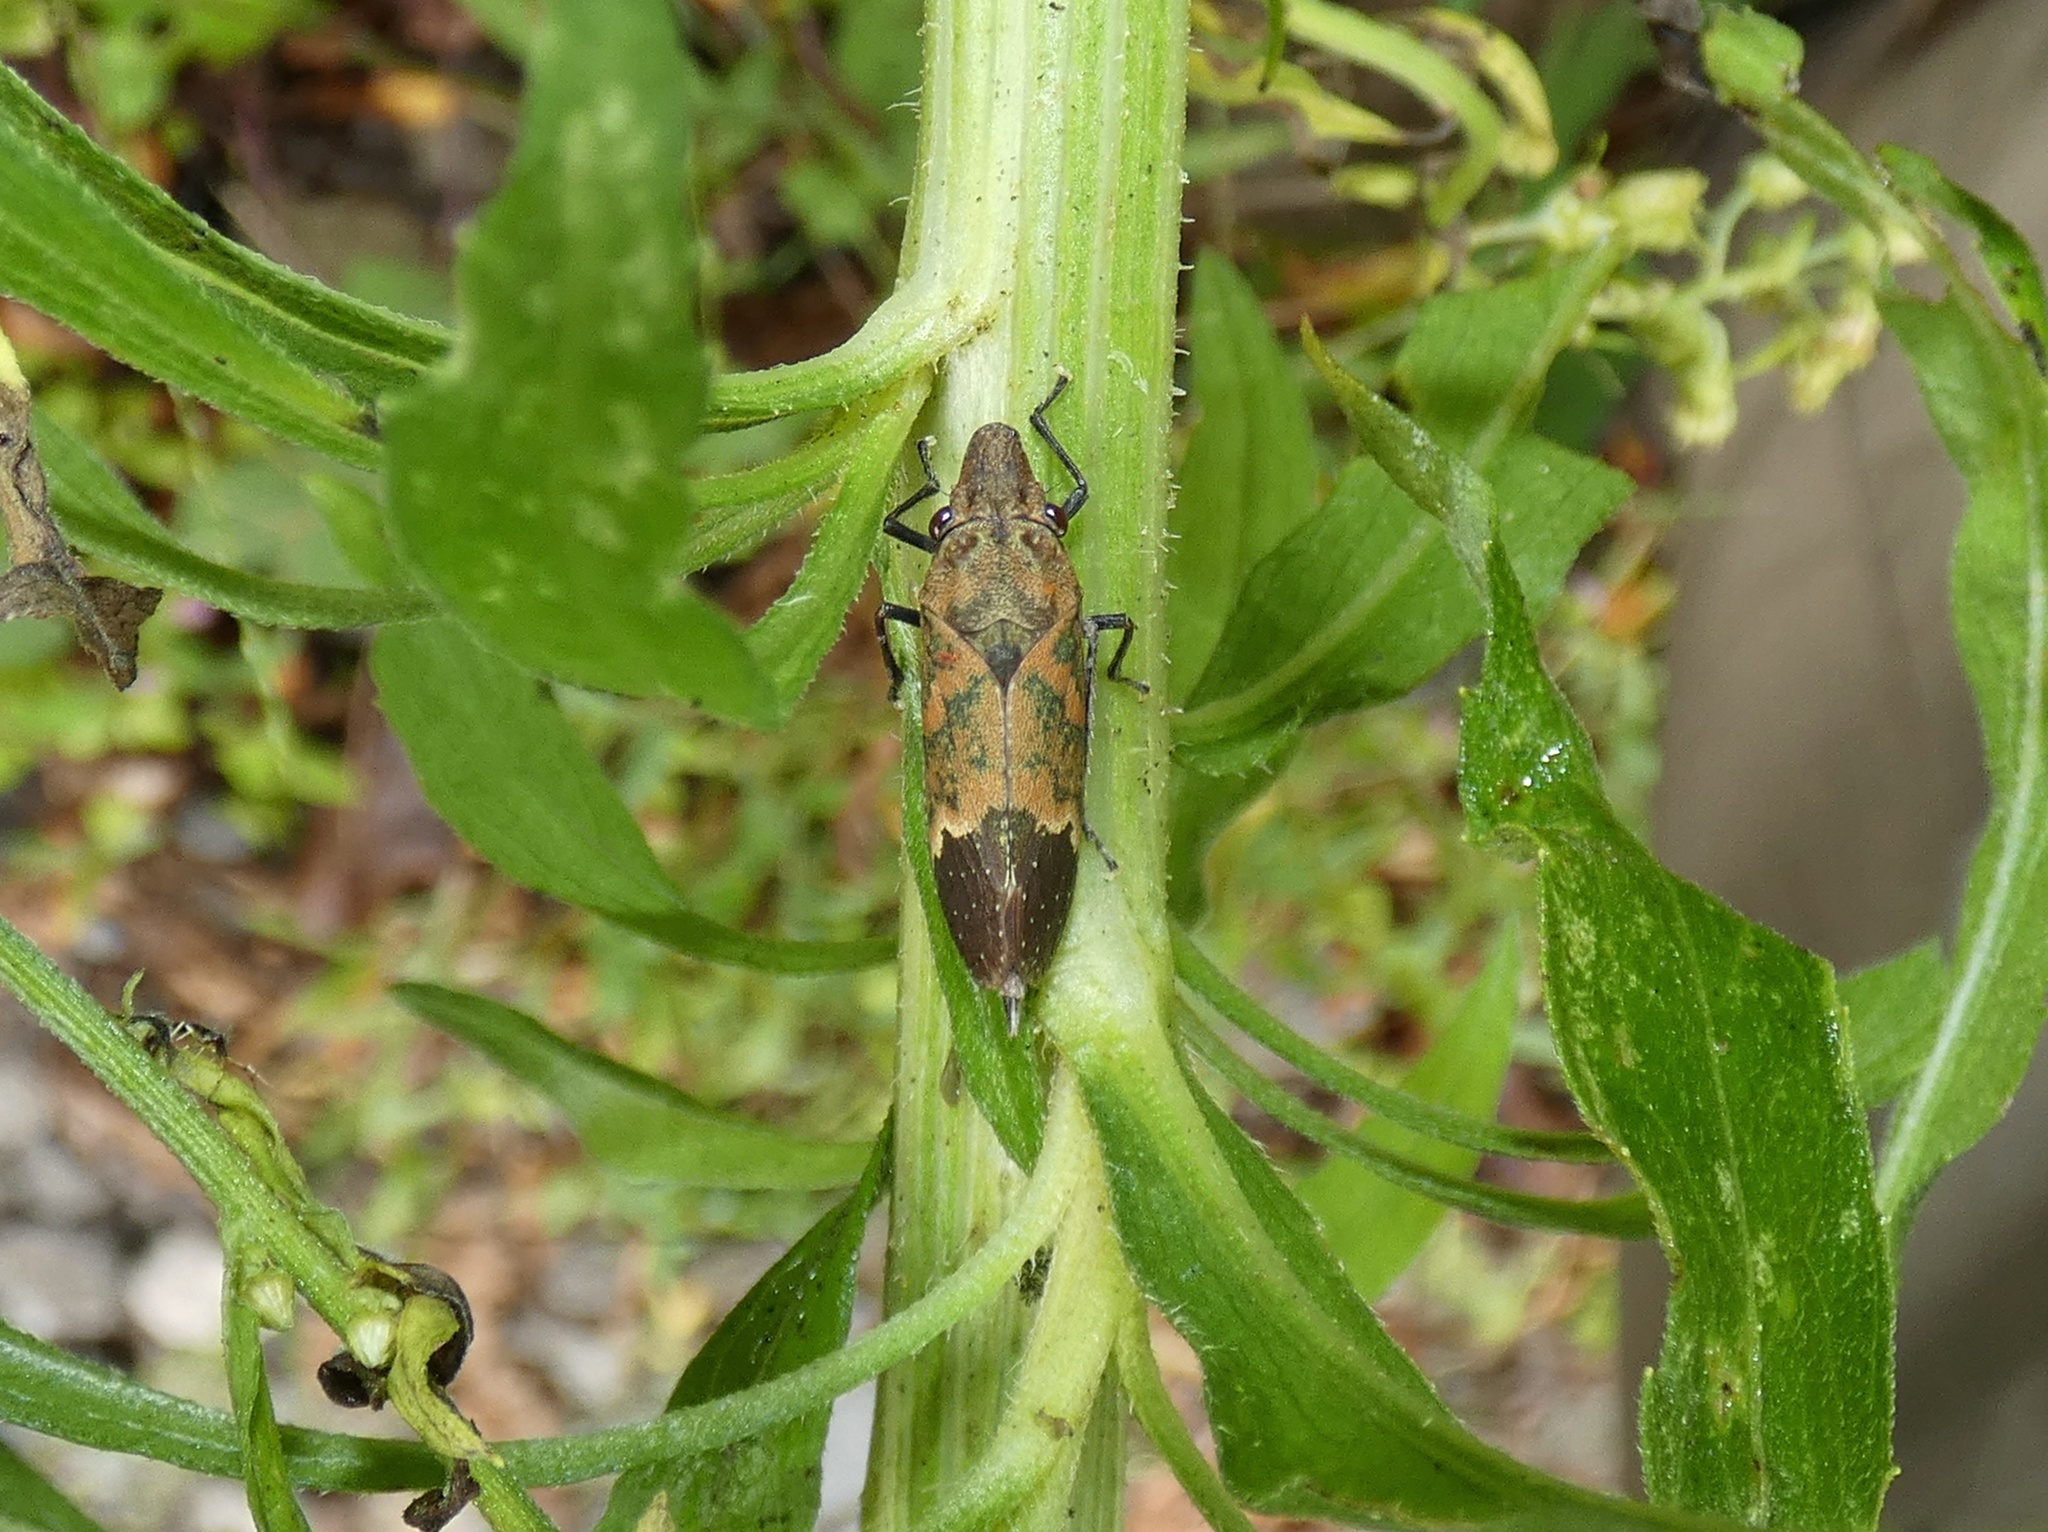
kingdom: Animalia
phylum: Arthropoda
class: Insecta
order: Hemiptera
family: Cicadellidae
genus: Deselvana
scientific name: Deselvana insignior
